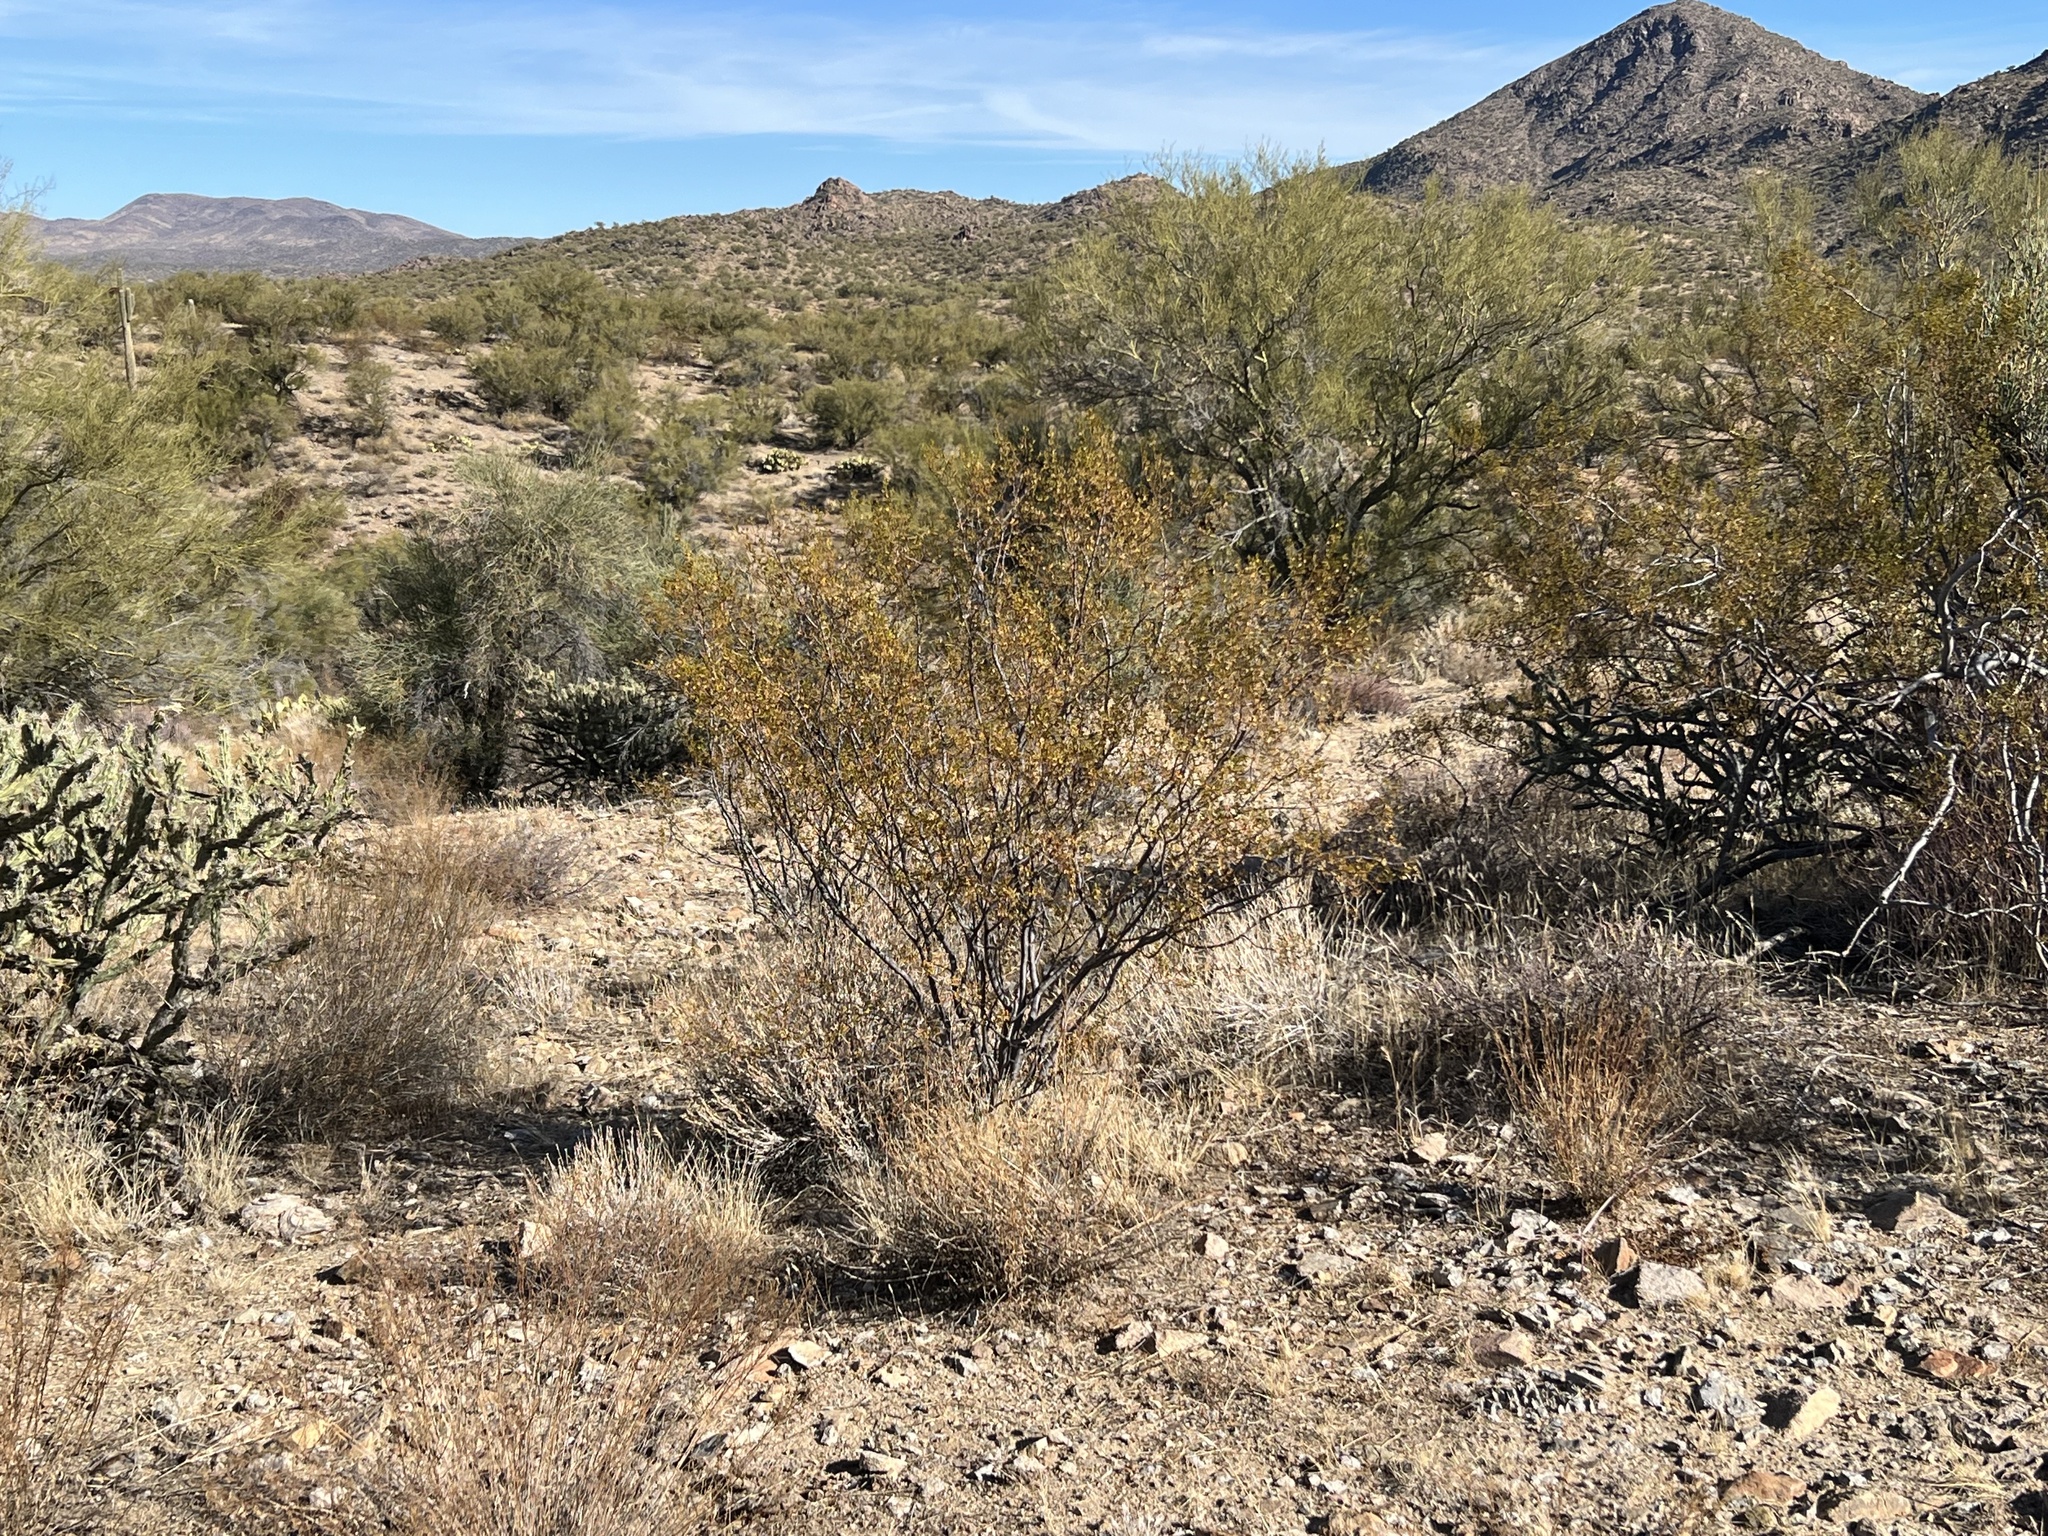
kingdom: Plantae
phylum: Tracheophyta
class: Magnoliopsida
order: Zygophyllales
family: Zygophyllaceae
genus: Larrea
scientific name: Larrea tridentata
